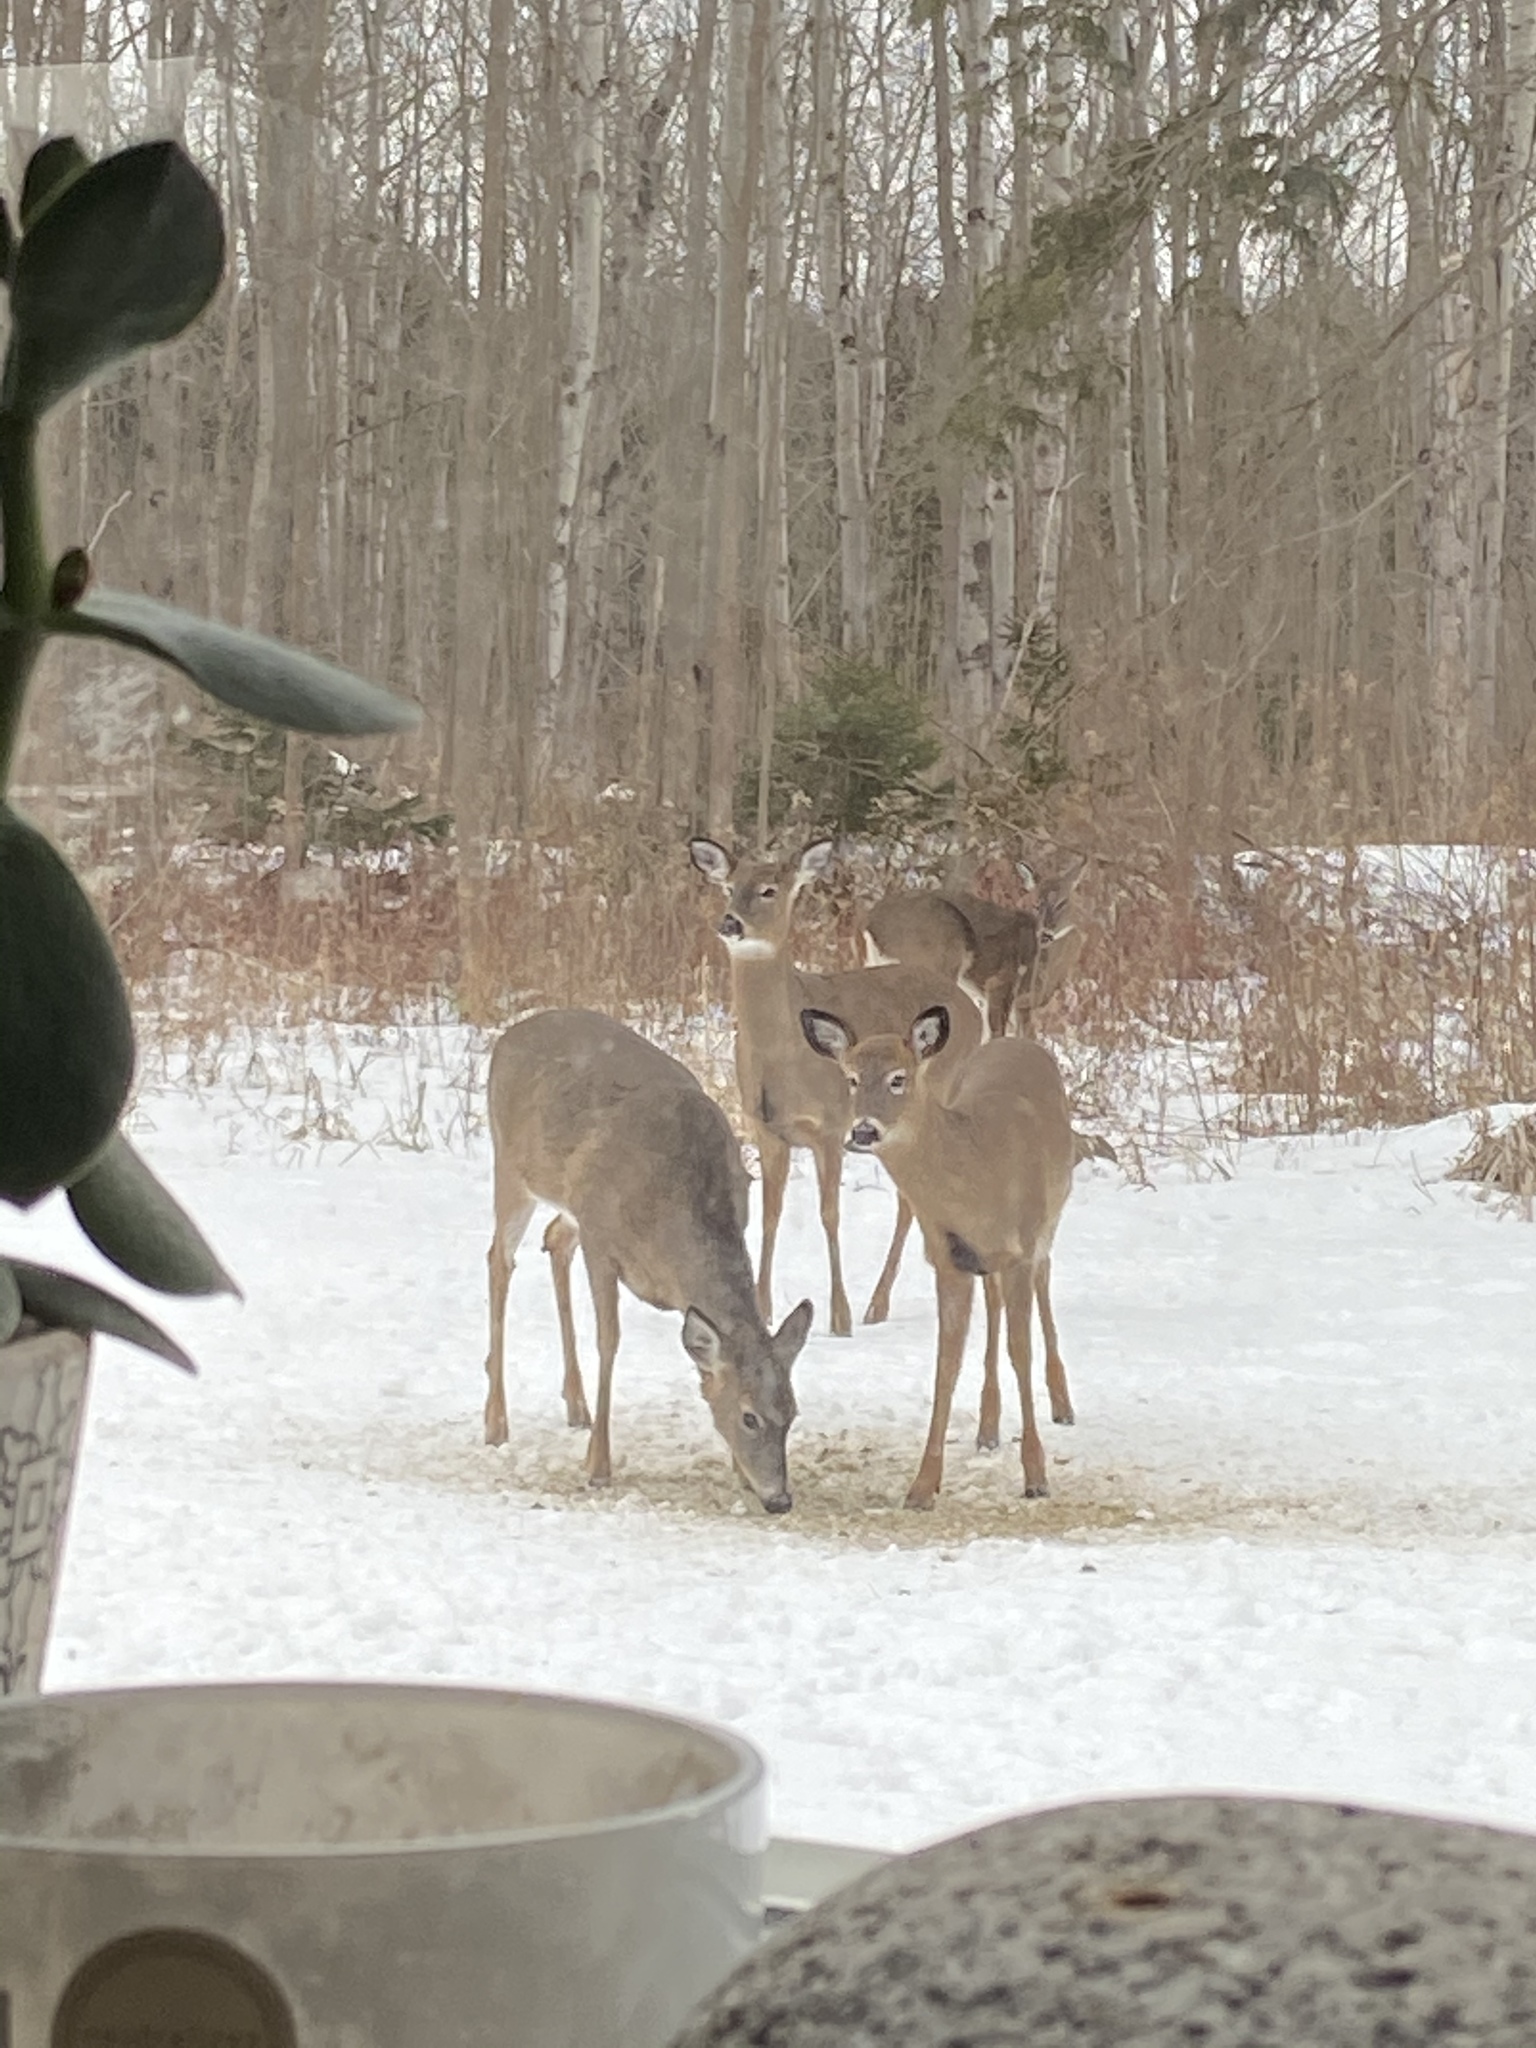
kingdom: Animalia
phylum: Chordata
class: Mammalia
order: Artiodactyla
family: Cervidae
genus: Odocoileus
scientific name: Odocoileus virginianus
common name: White-tailed deer
